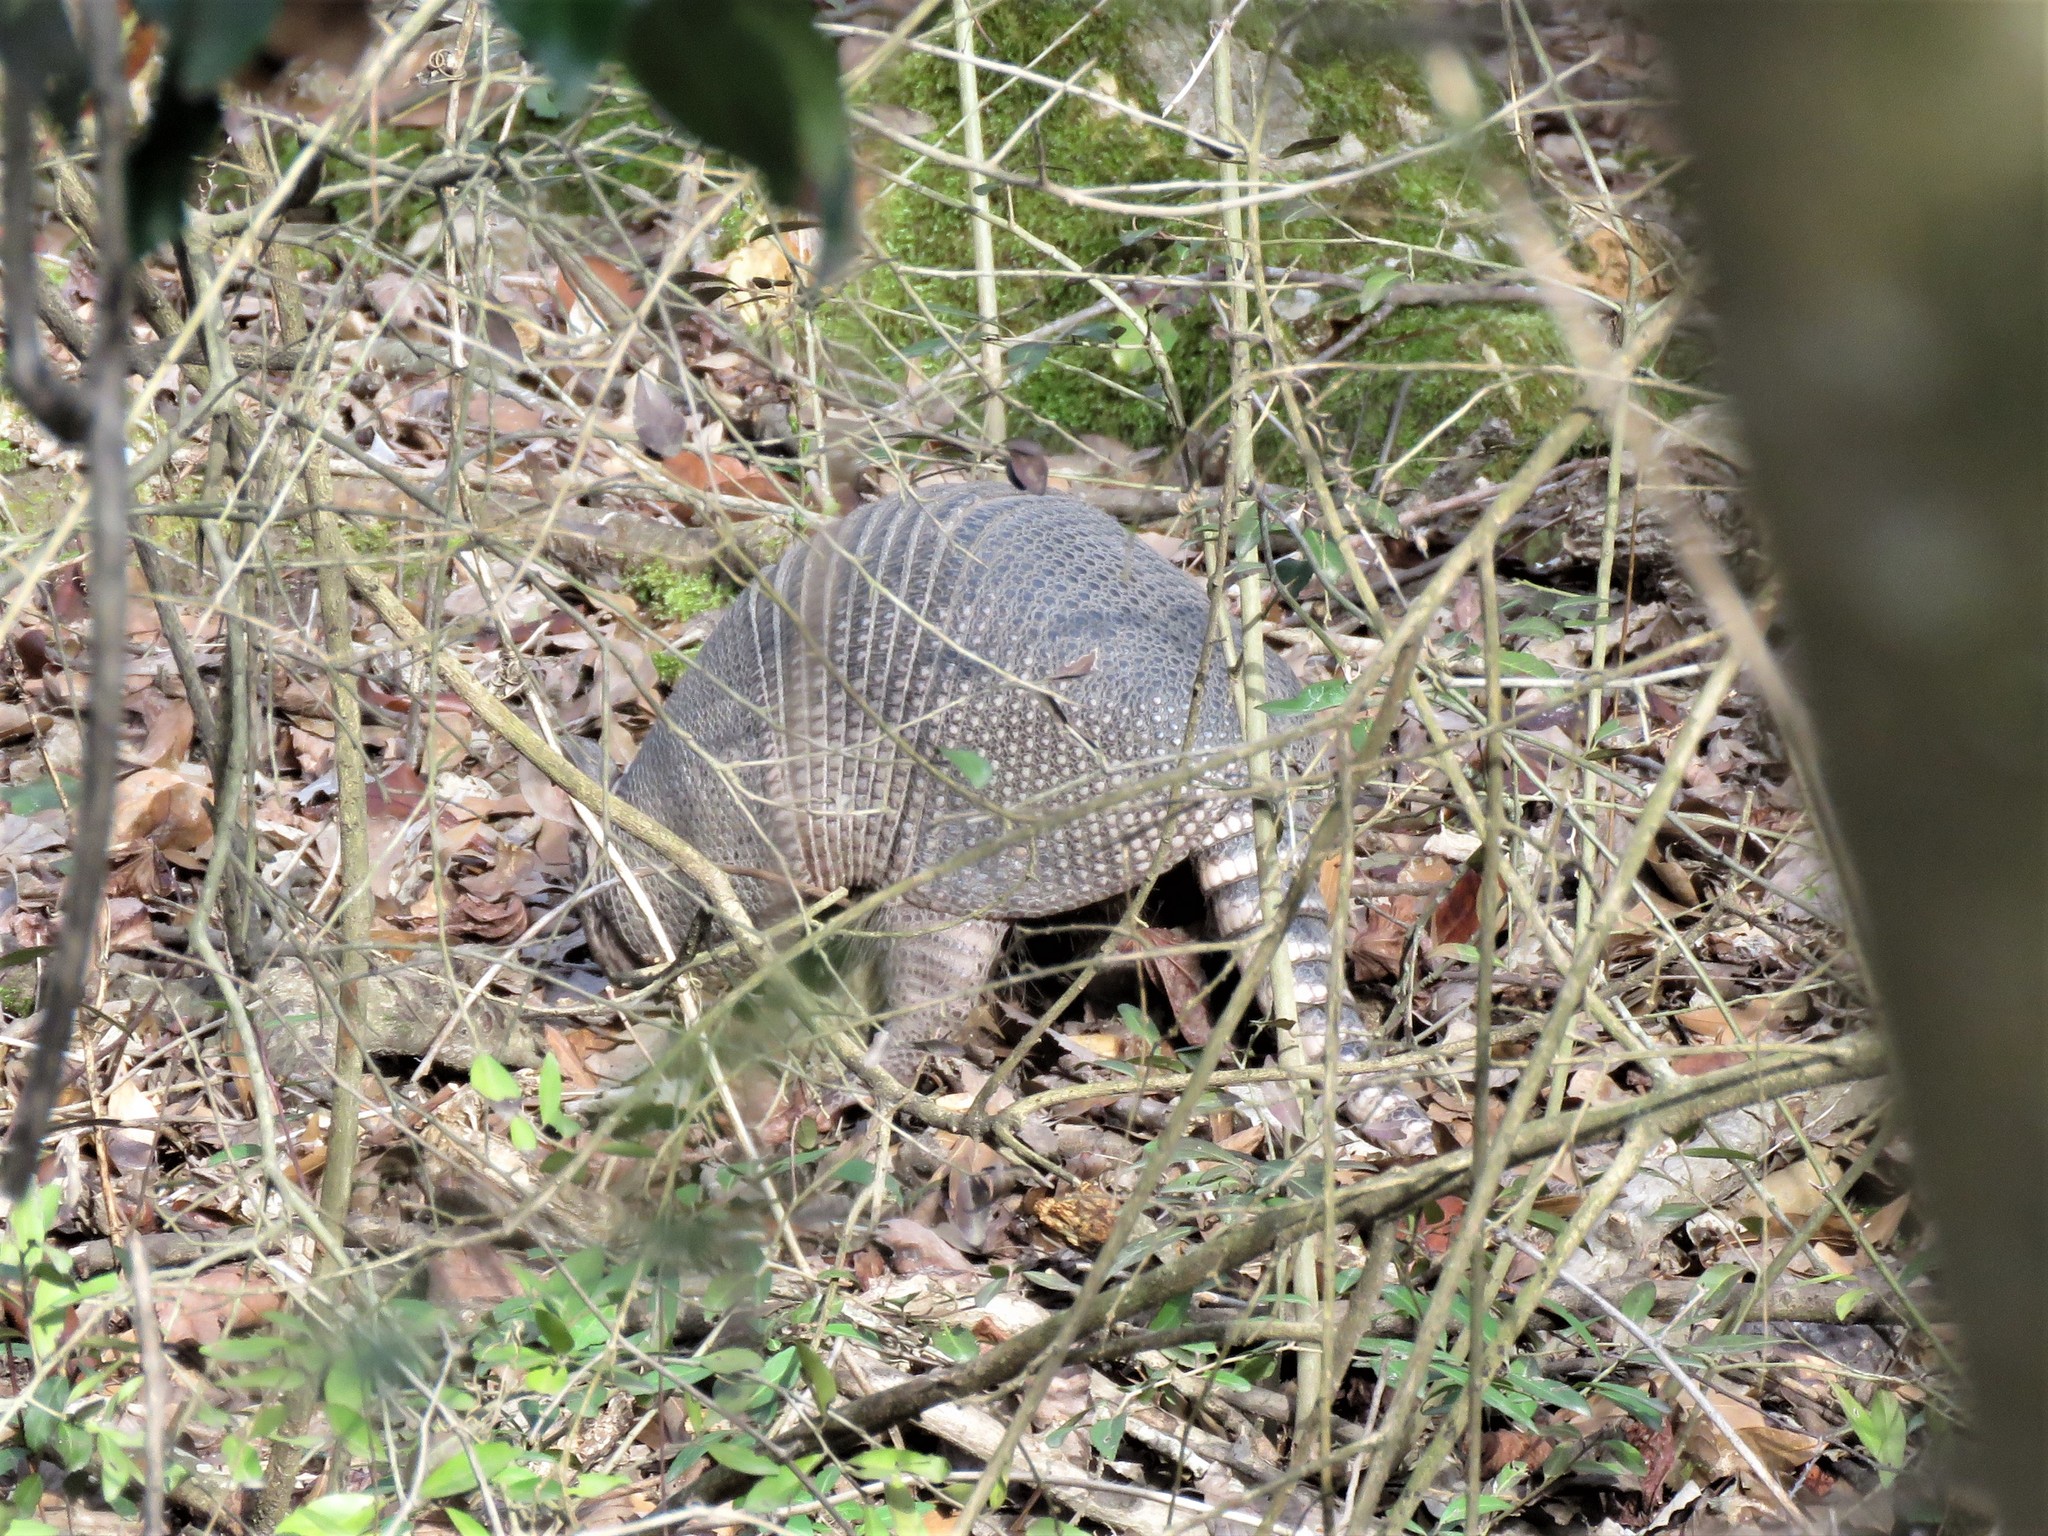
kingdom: Animalia
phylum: Chordata
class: Mammalia
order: Cingulata
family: Dasypodidae
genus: Dasypus
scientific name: Dasypus novemcinctus
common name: Nine-banded armadillo
